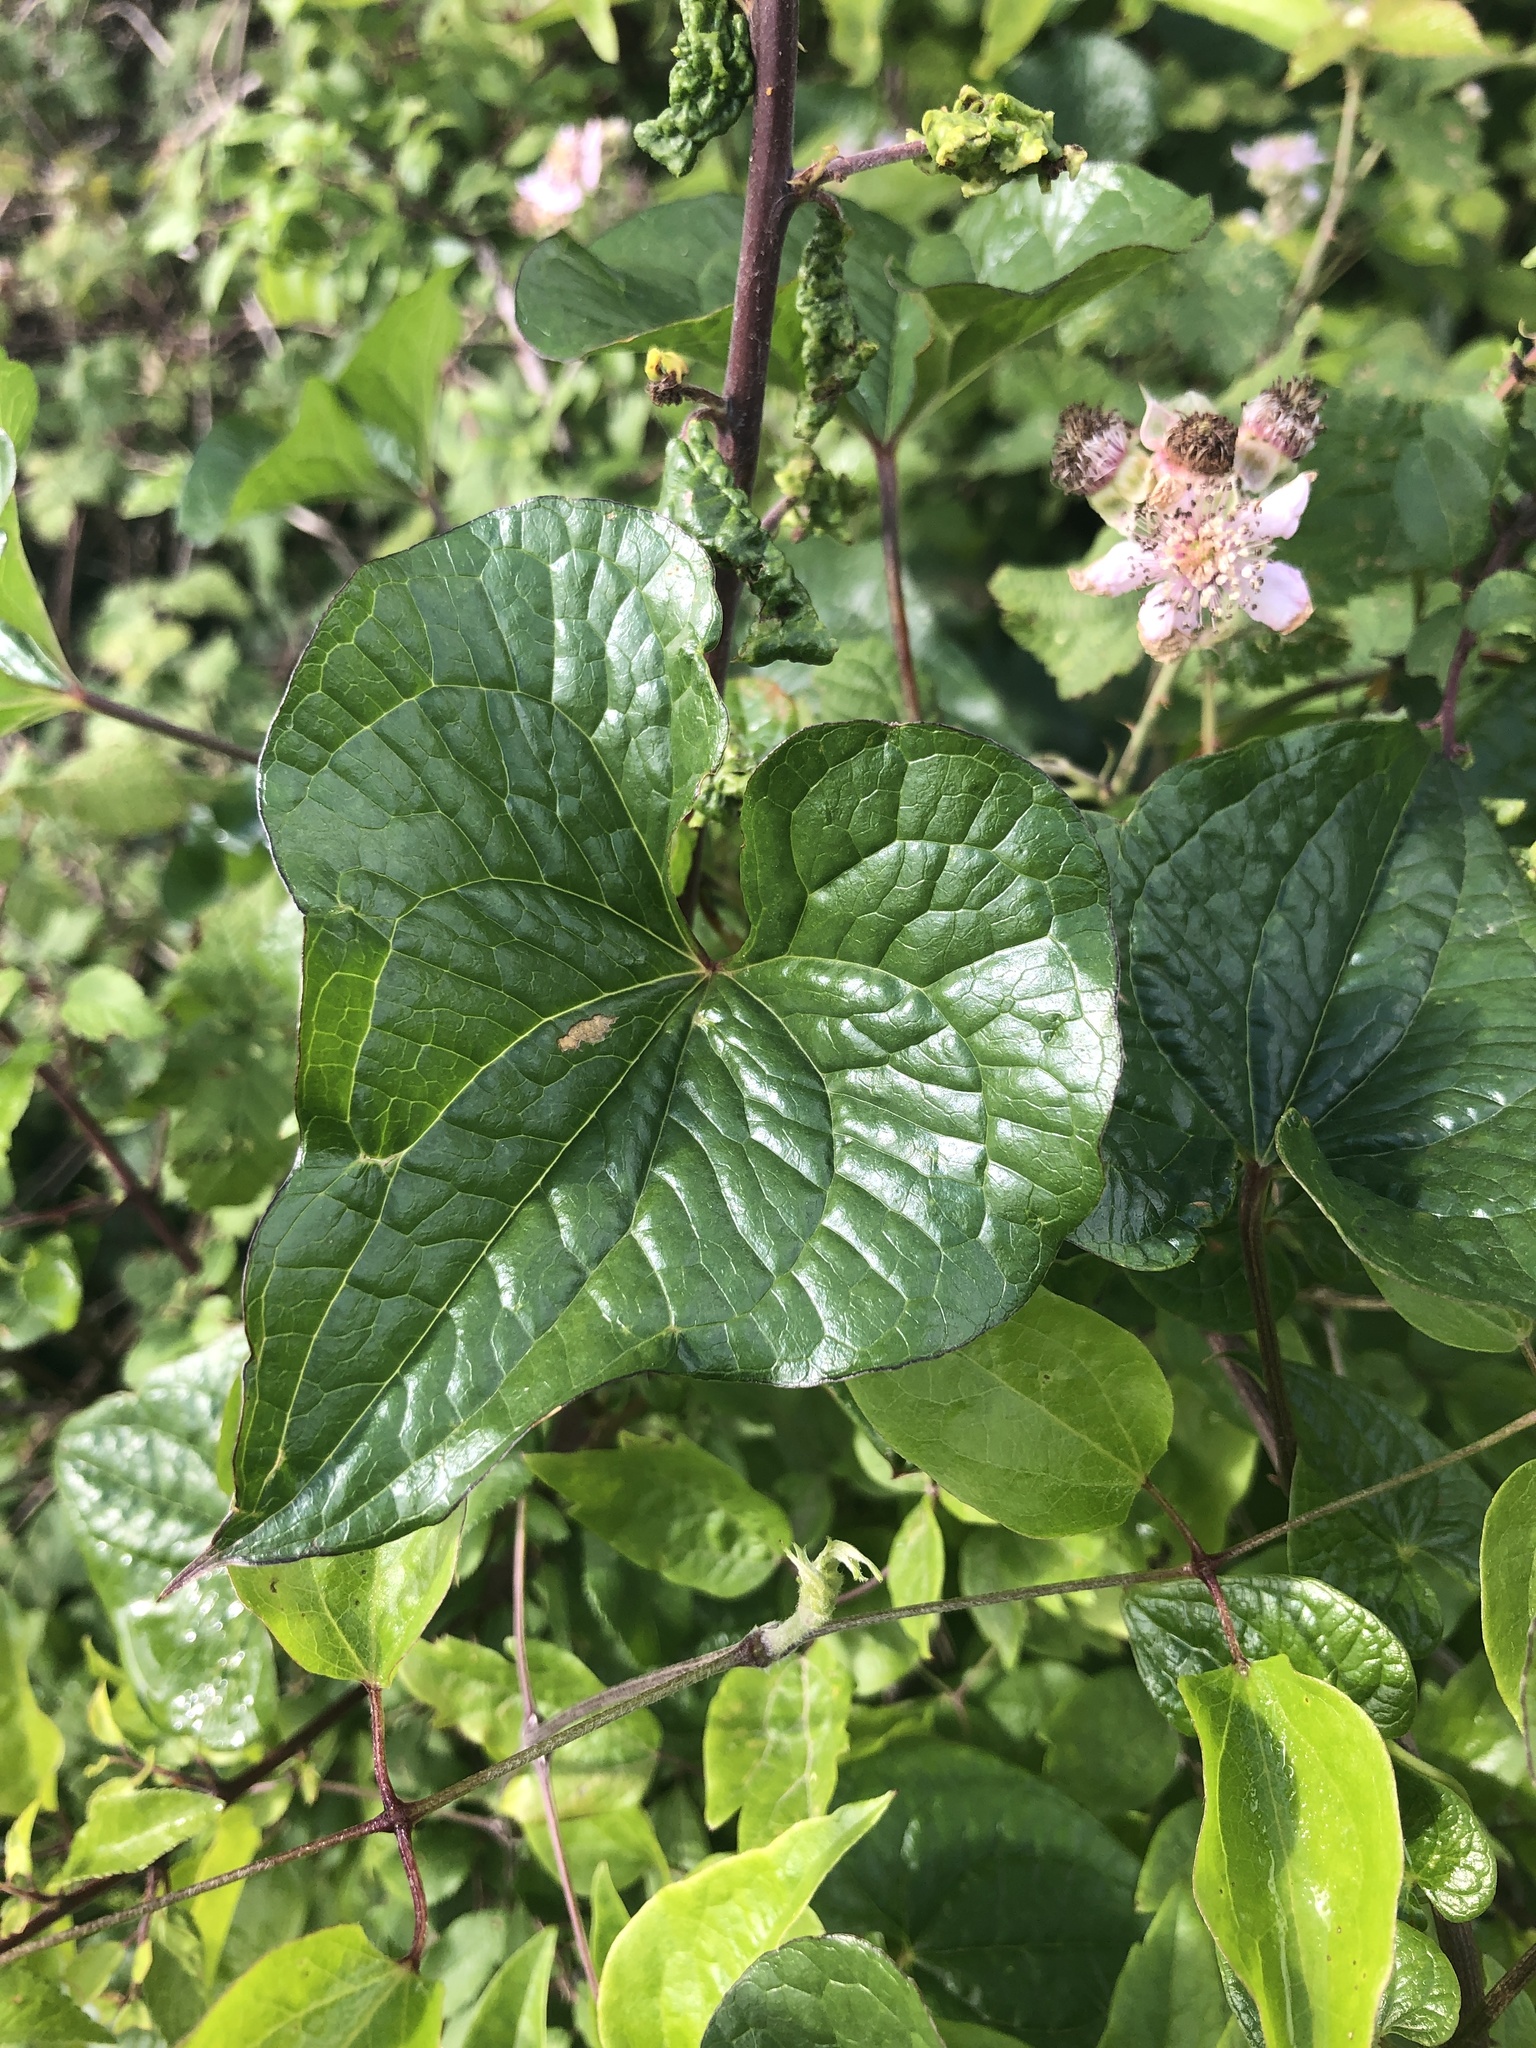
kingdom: Plantae
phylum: Tracheophyta
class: Liliopsida
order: Dioscoreales
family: Dioscoreaceae
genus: Dioscorea
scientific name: Dioscorea communis
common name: Black-bindweed
